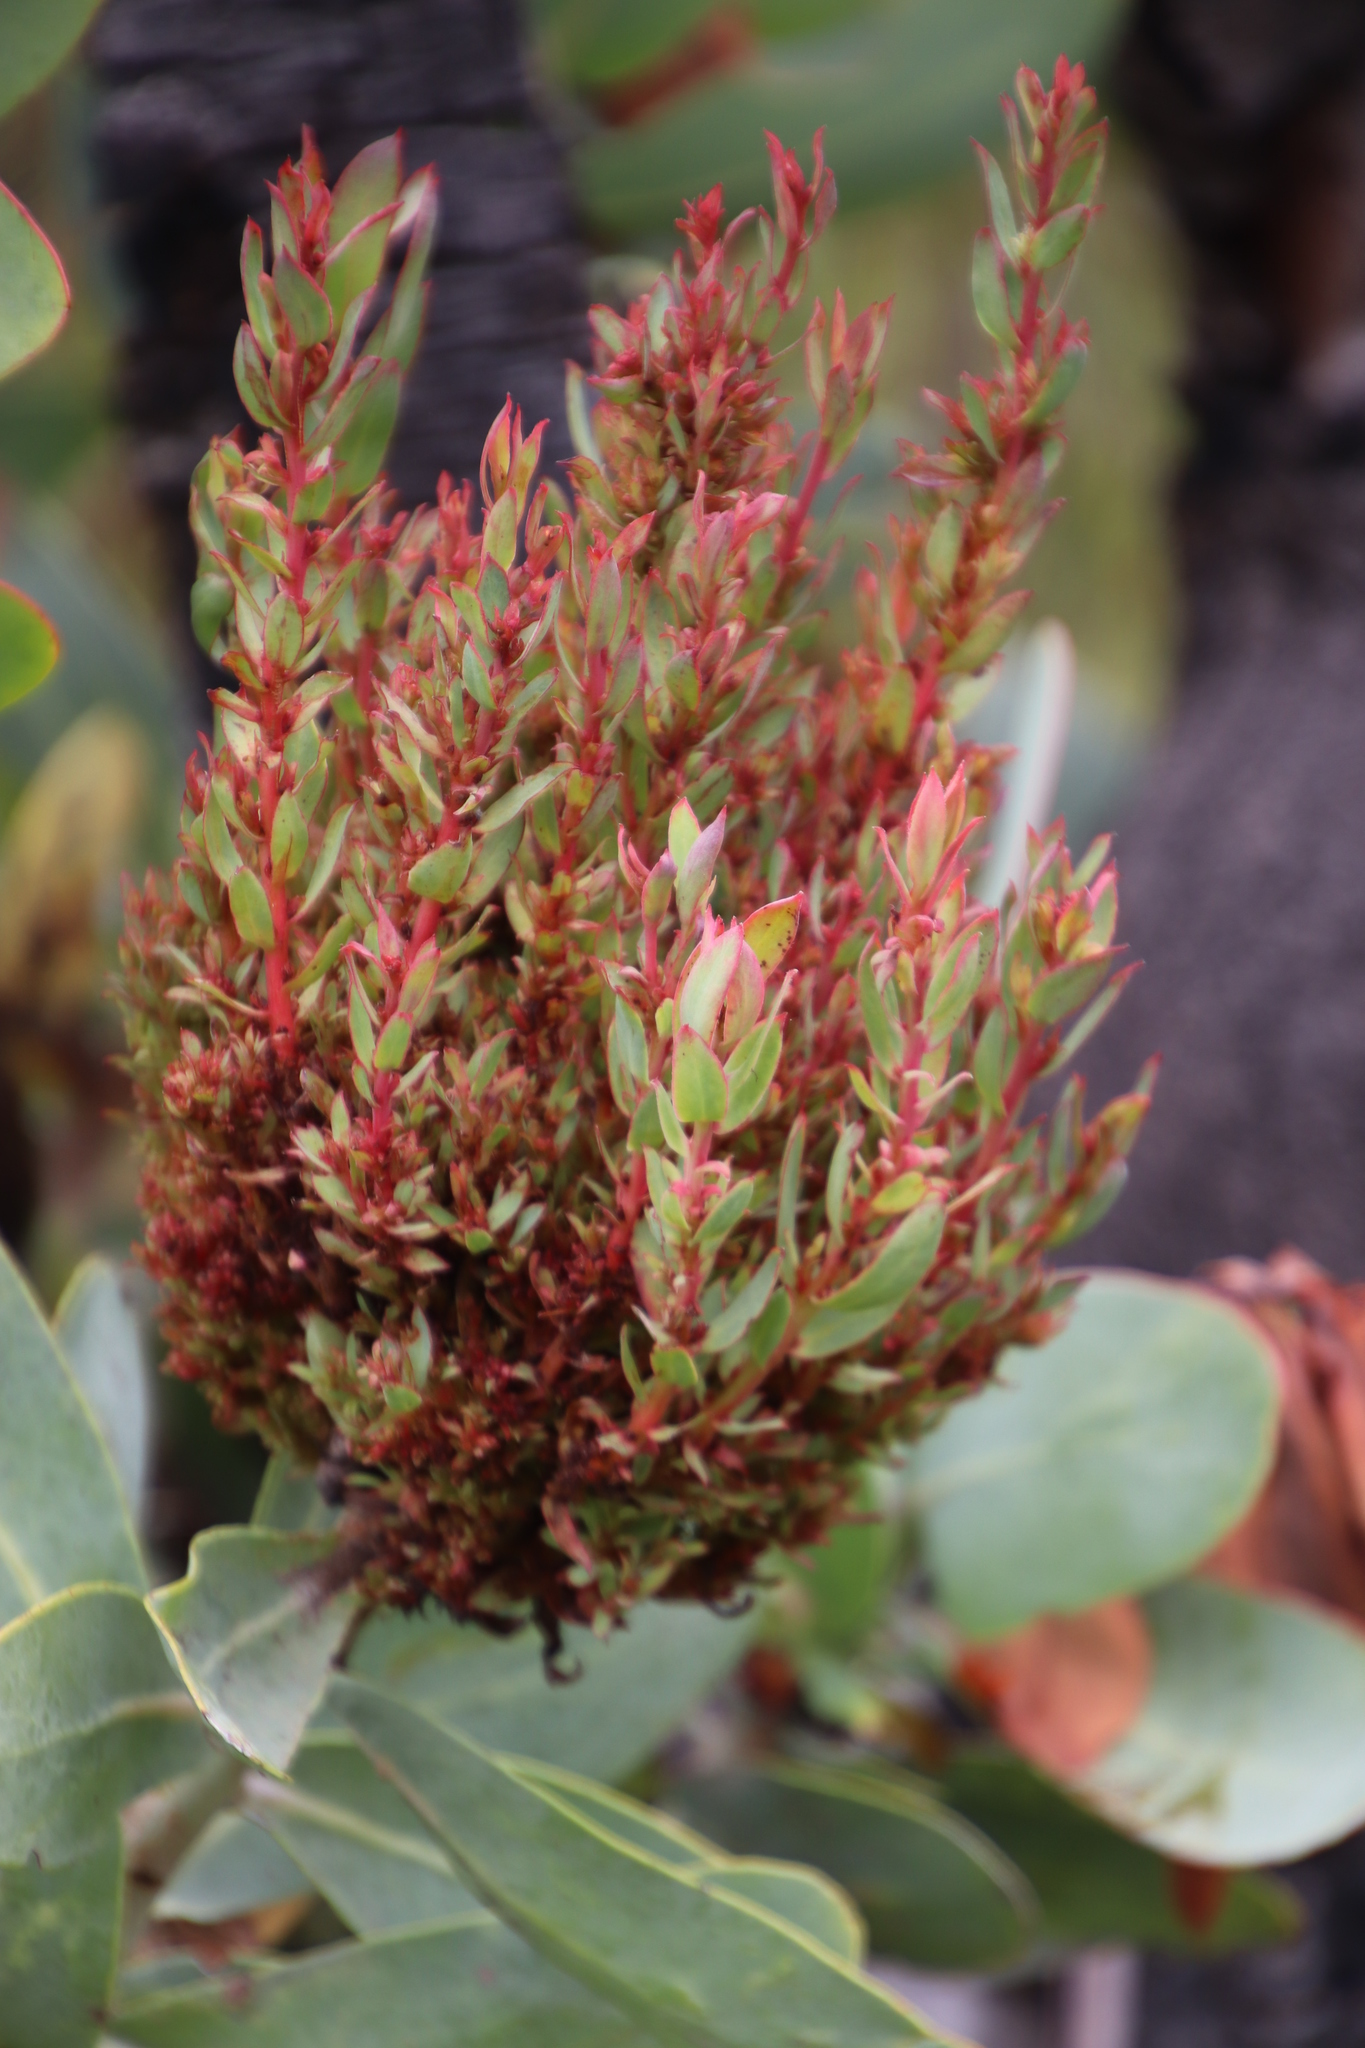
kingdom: Bacteria
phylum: Firmicutes
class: Bacilli
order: Acholeplasmatales
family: Acholeplasmataceae
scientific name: Acholeplasmataceae
